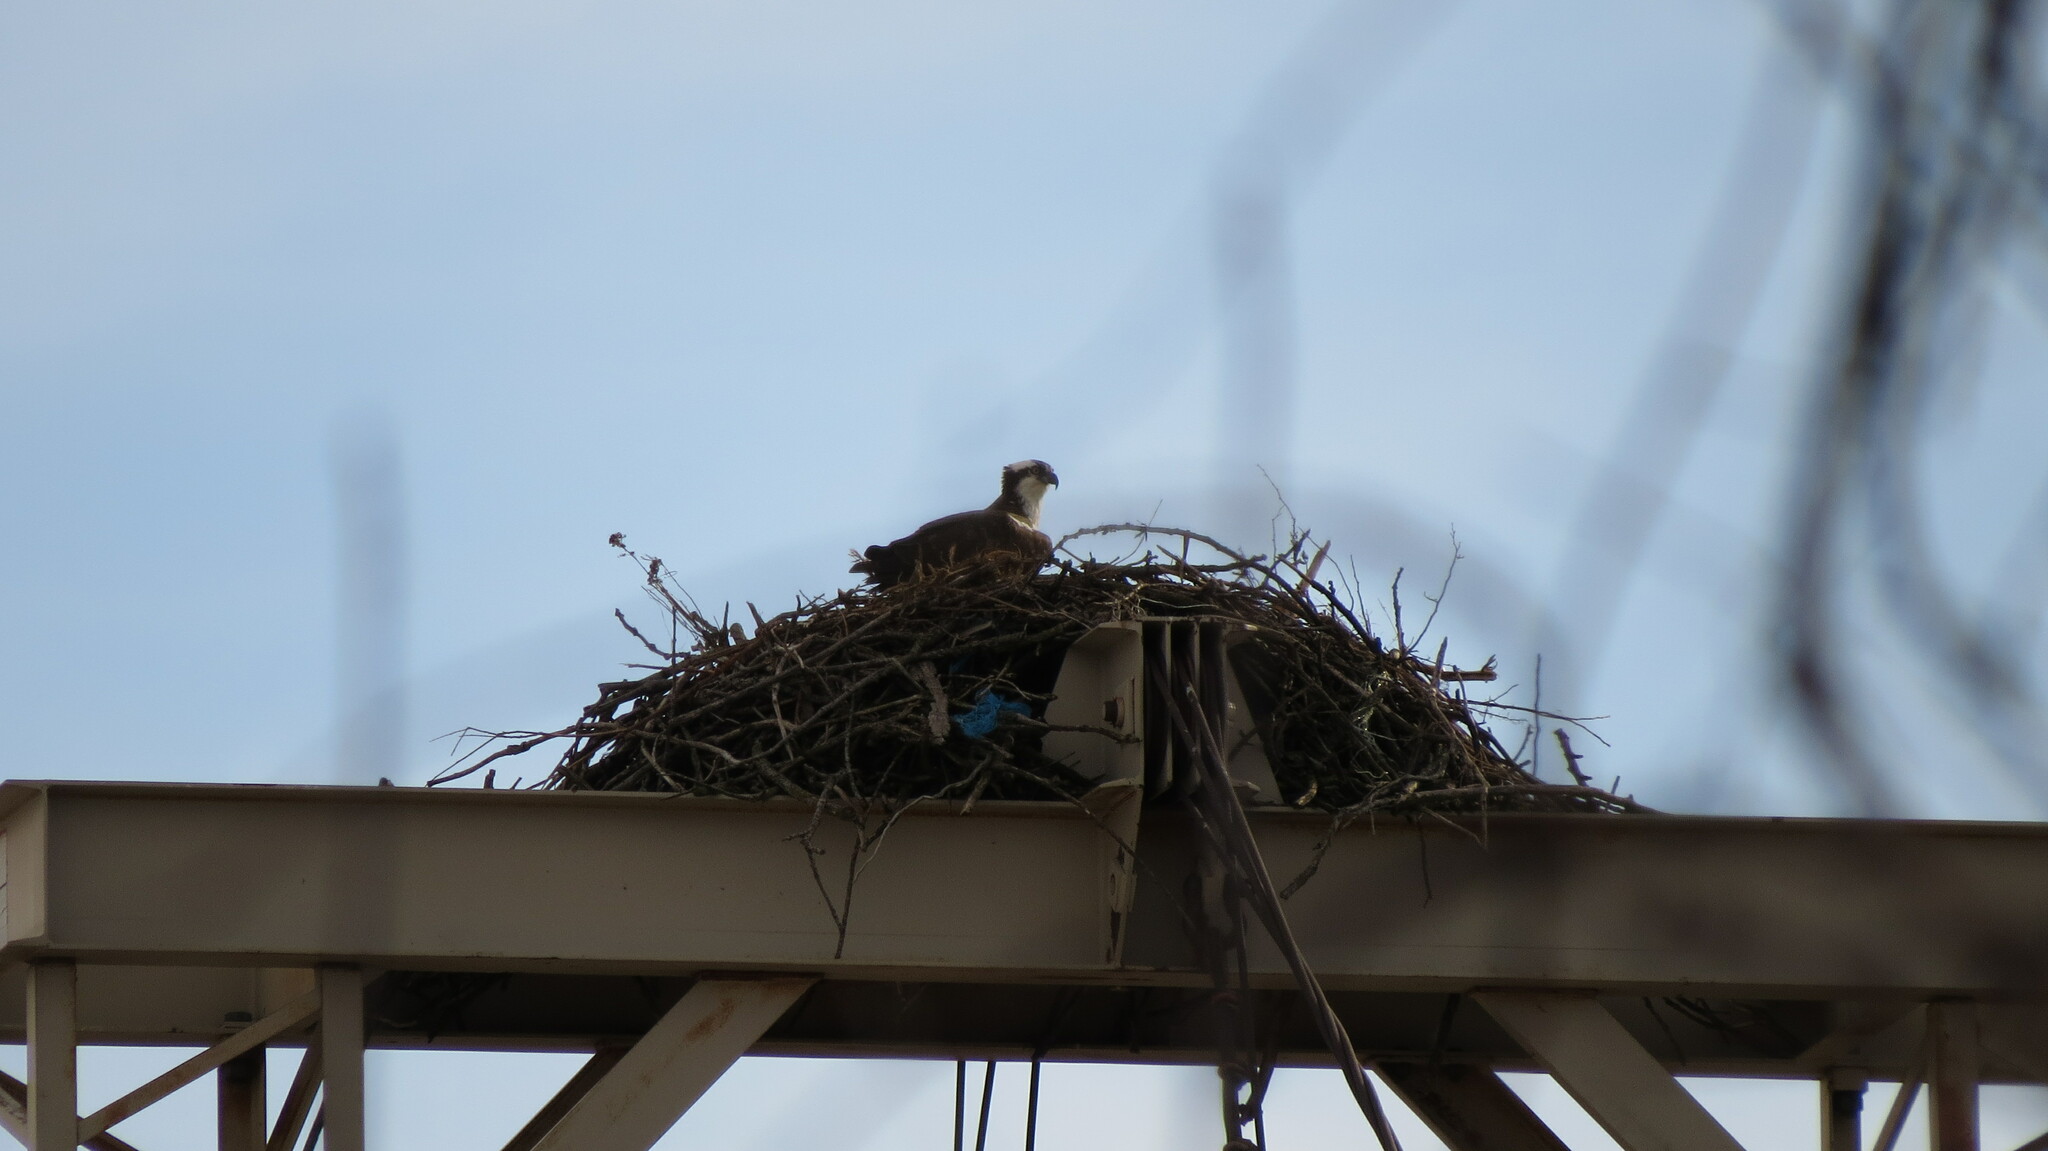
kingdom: Animalia
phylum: Chordata
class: Aves
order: Accipitriformes
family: Pandionidae
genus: Pandion
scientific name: Pandion haliaetus
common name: Osprey
